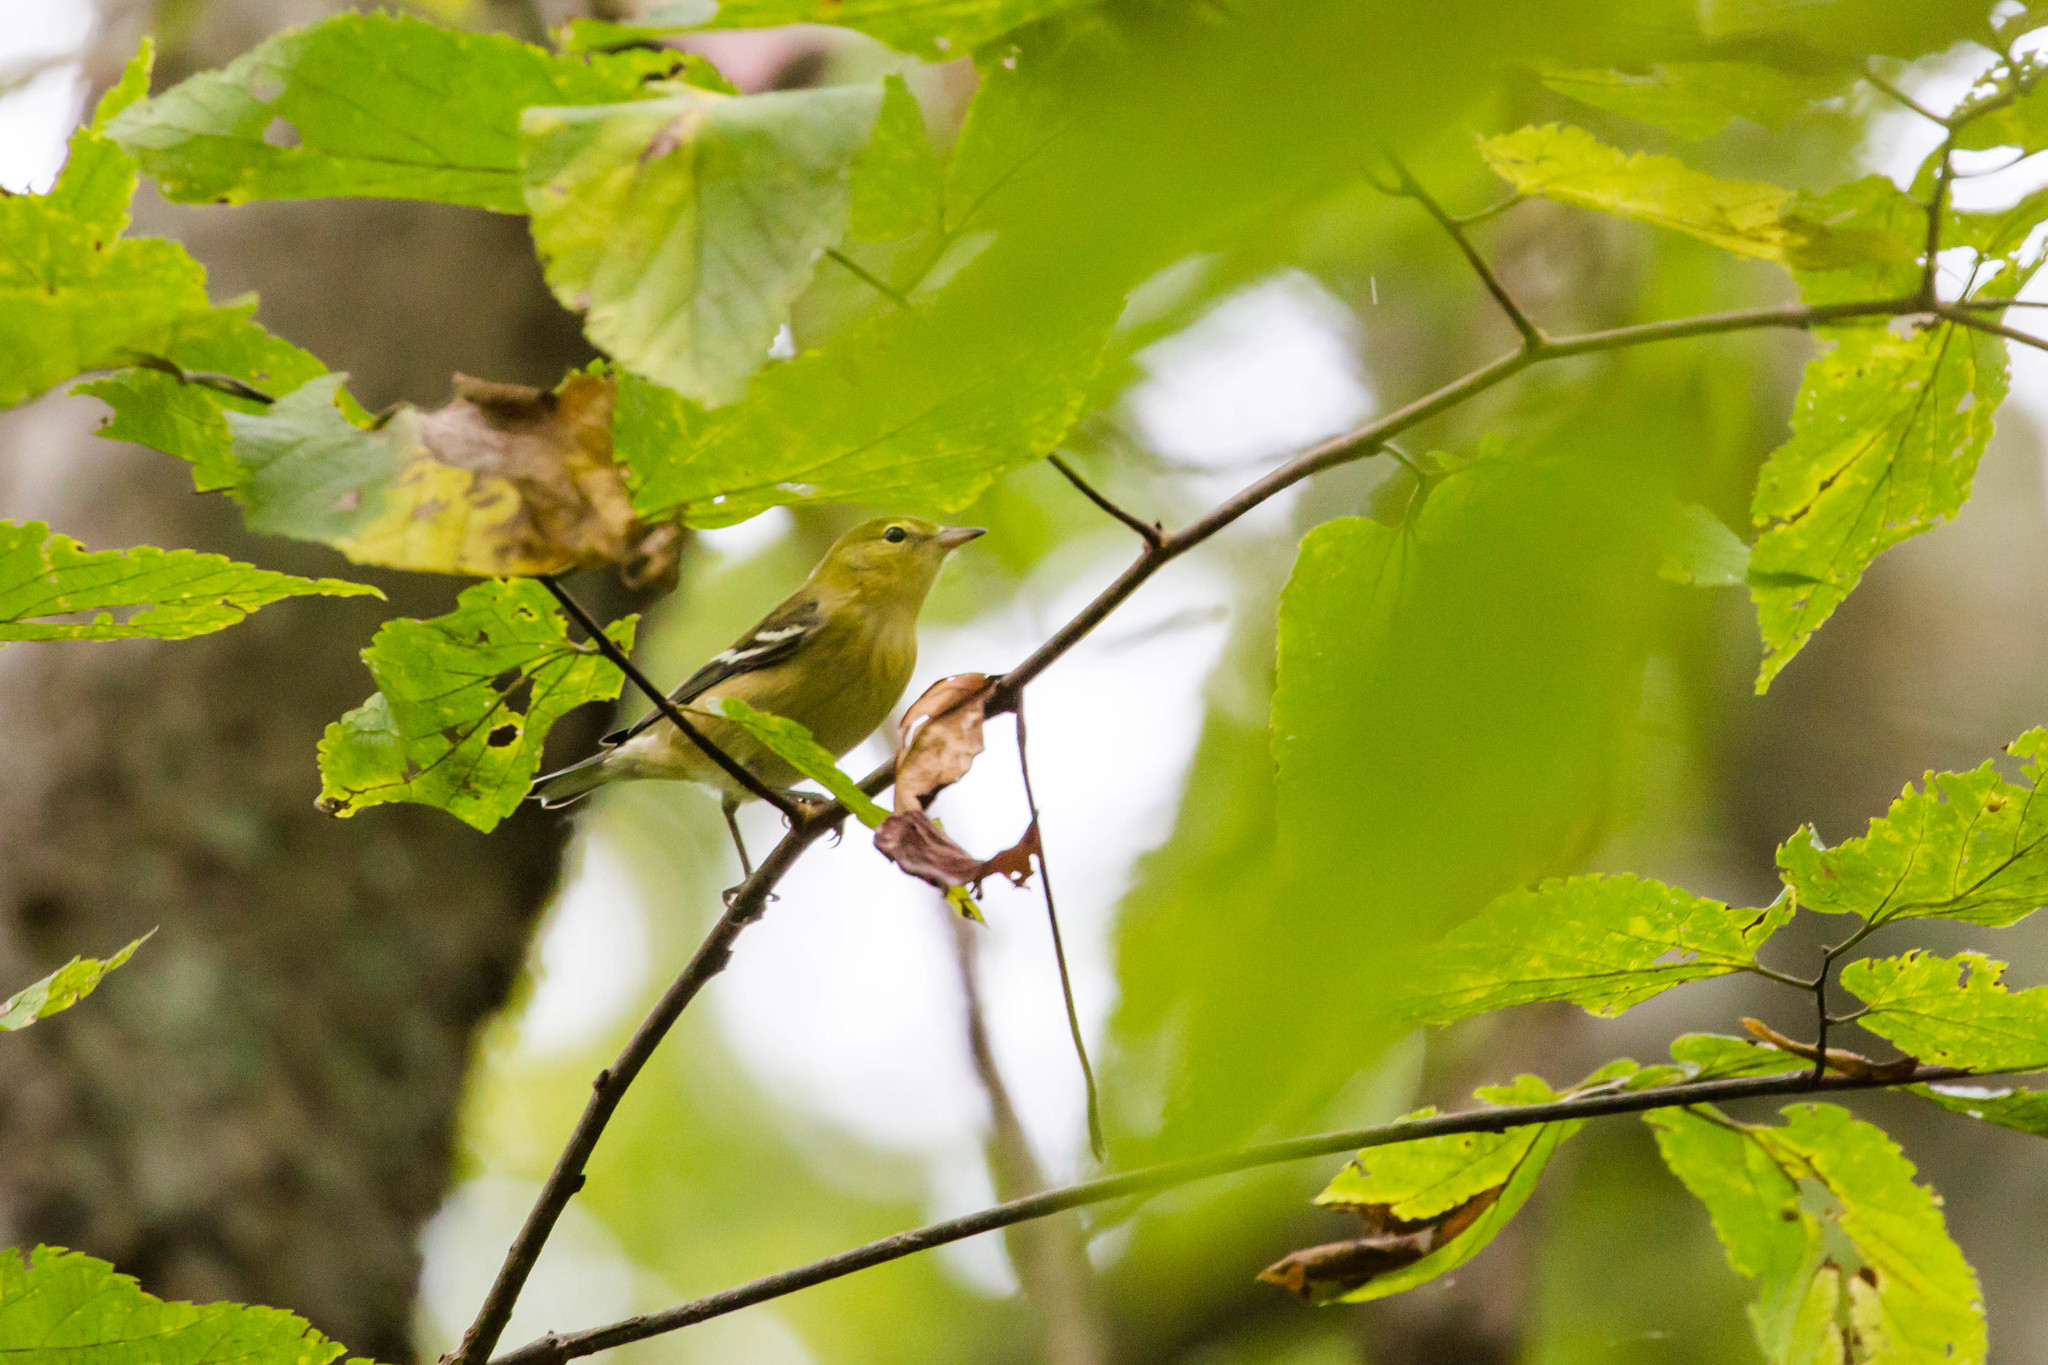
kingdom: Animalia
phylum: Chordata
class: Aves
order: Passeriformes
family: Parulidae
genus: Setophaga
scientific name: Setophaga castanea
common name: Bay-breasted warbler
